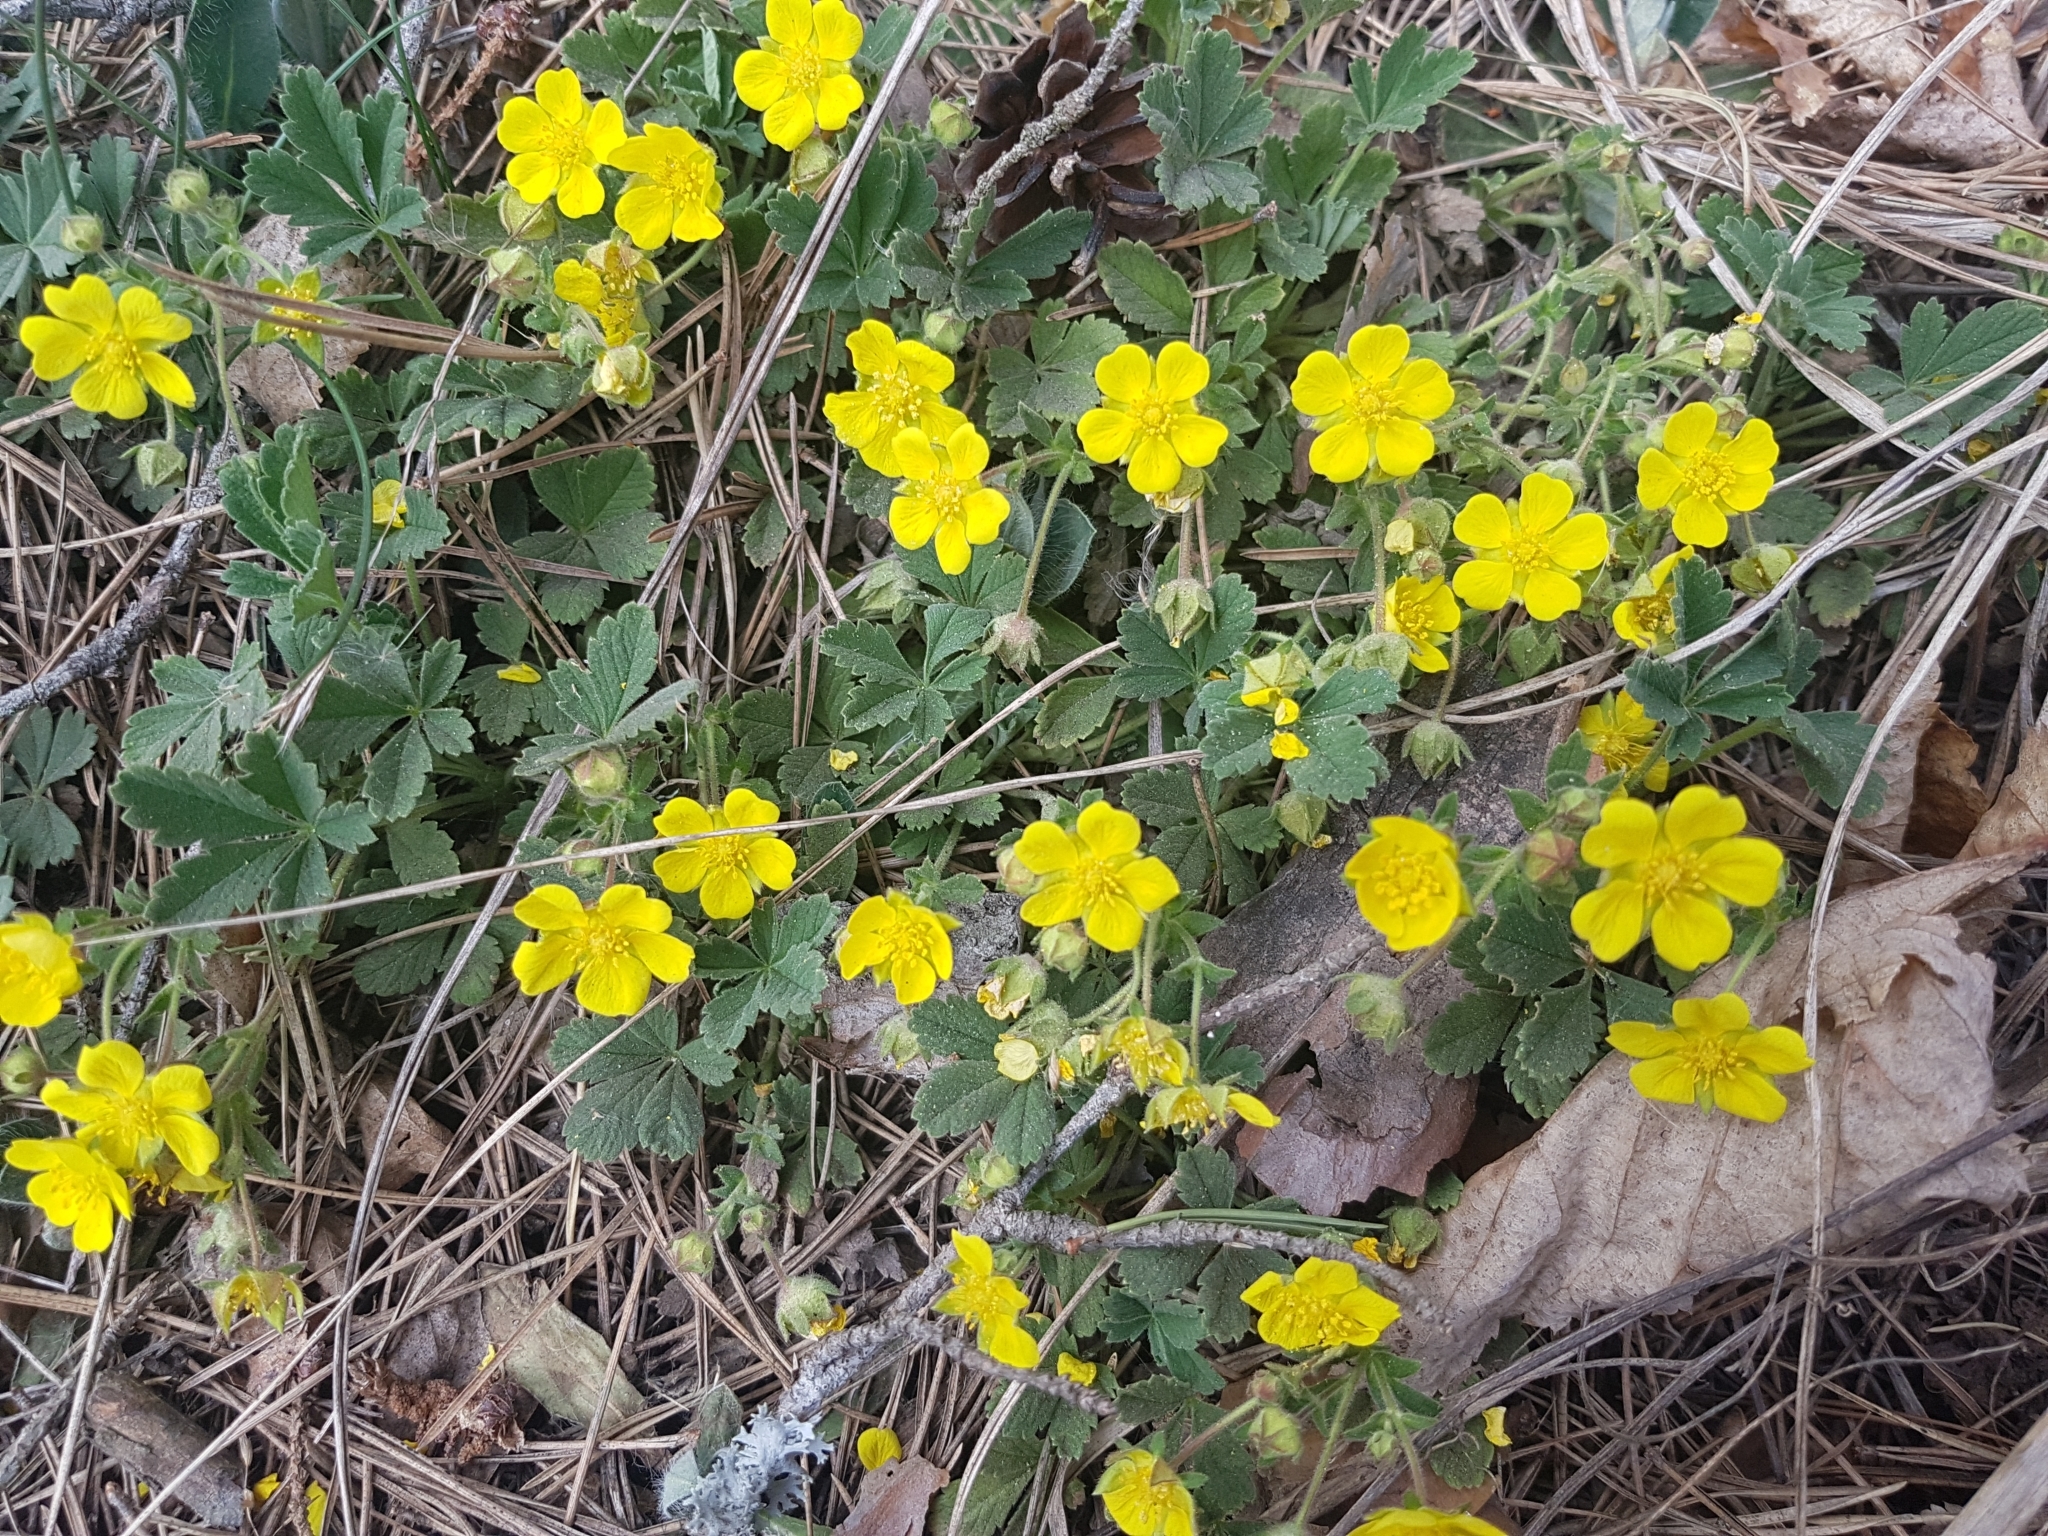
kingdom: Plantae
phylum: Tracheophyta
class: Magnoliopsida
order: Rosales
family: Rosaceae
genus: Potentilla
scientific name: Potentilla incana
